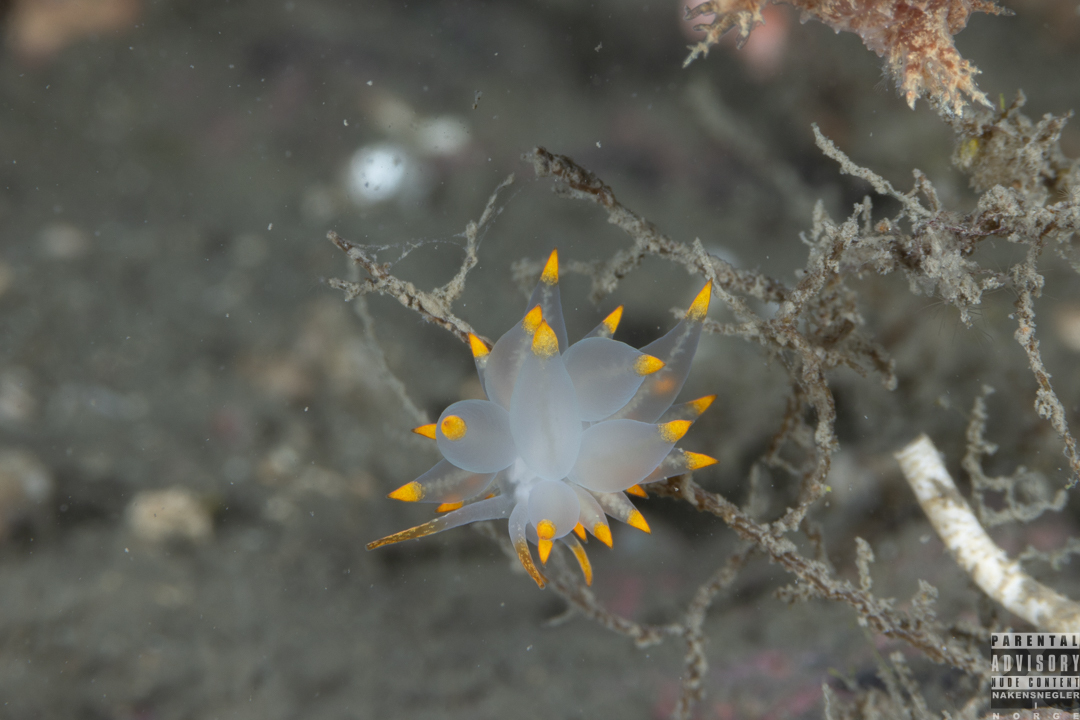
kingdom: Animalia
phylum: Mollusca
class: Gastropoda
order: Nudibranchia
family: Eubranchidae
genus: Amphorina
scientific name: Amphorina farrani
